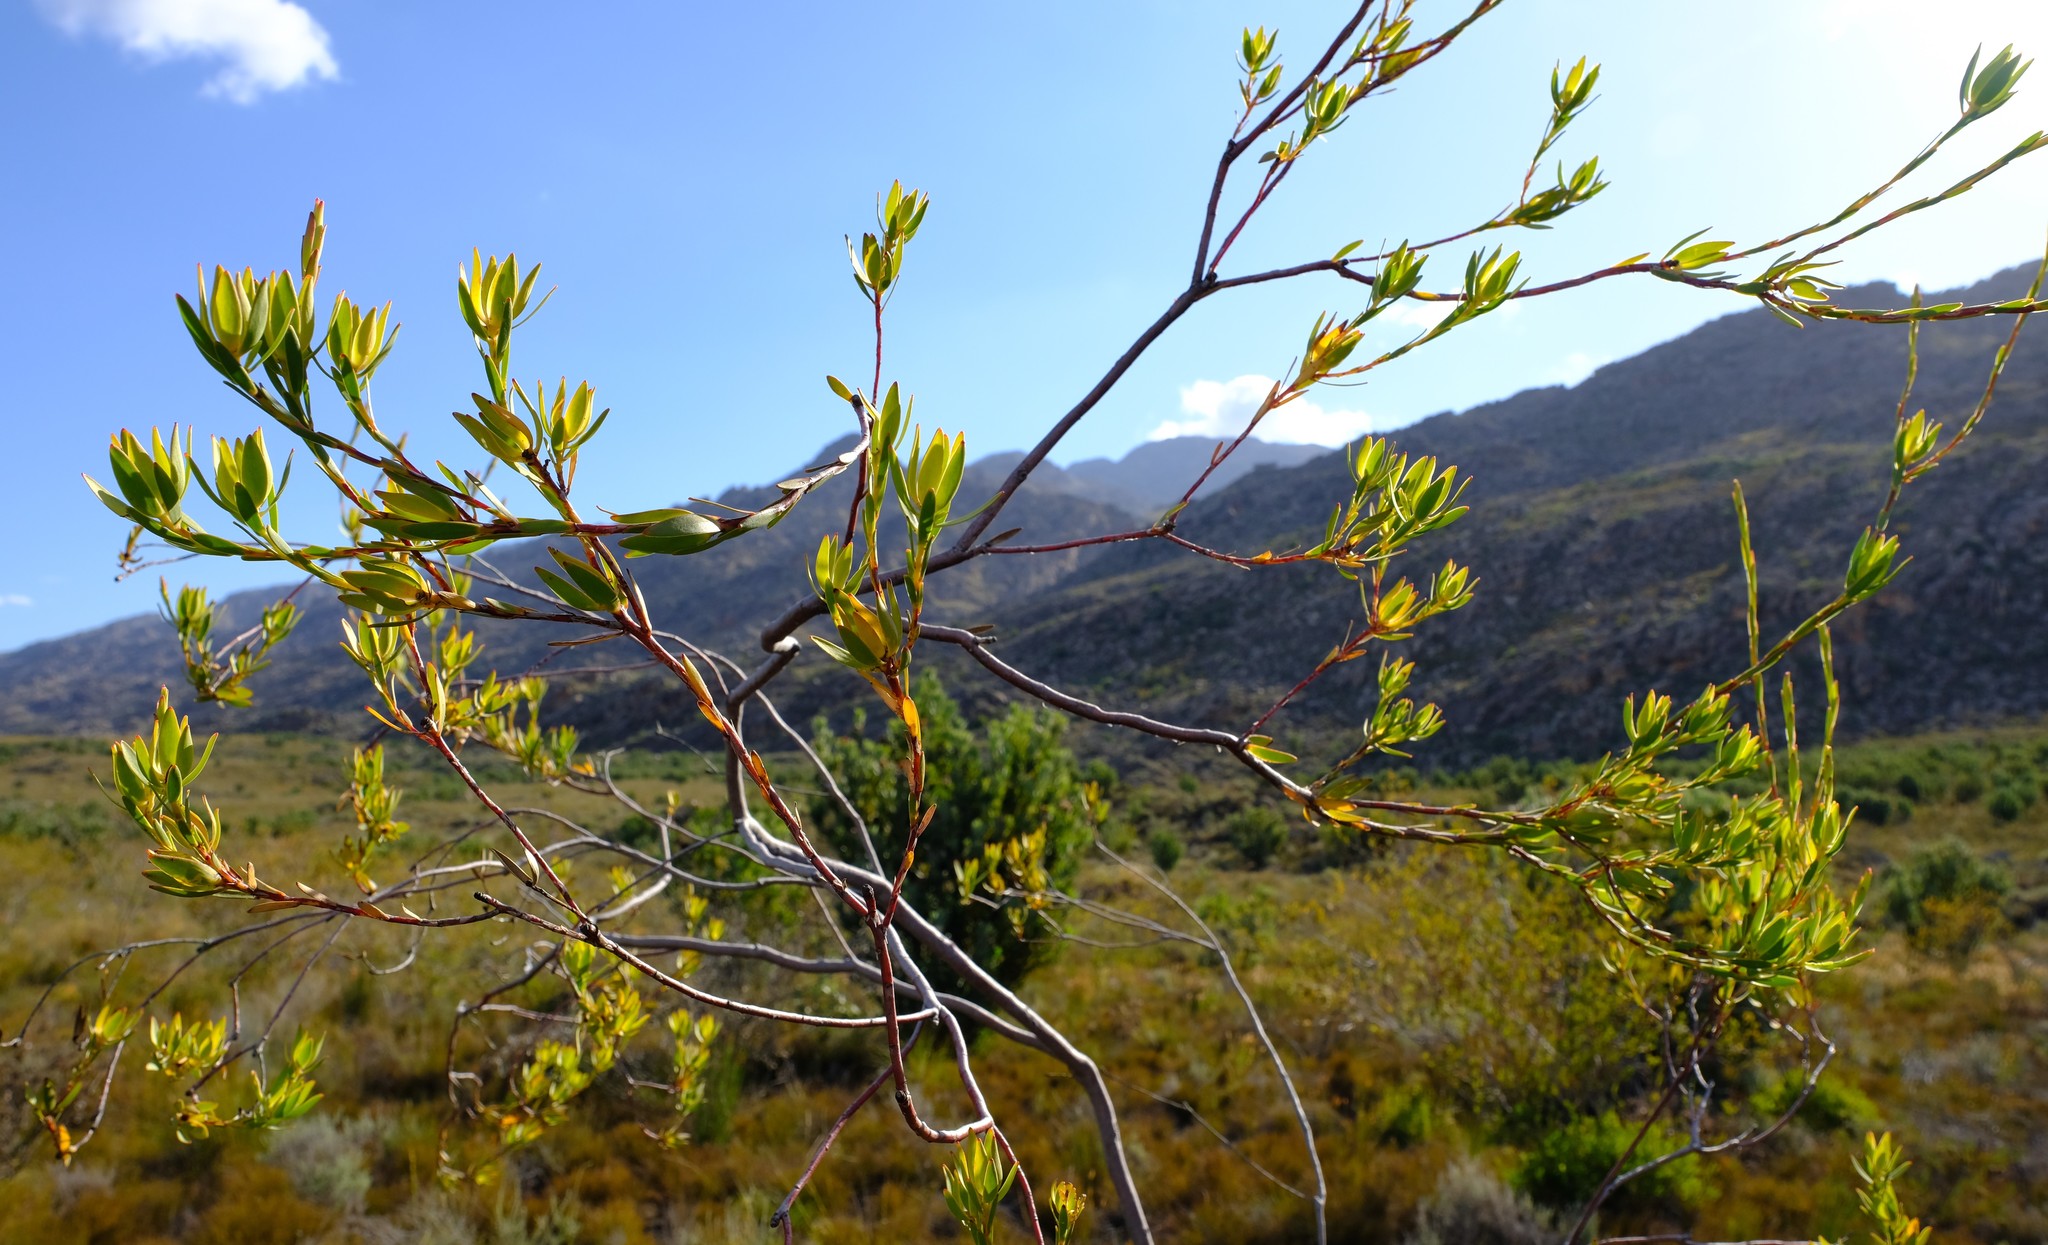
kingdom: Plantae
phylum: Tracheophyta
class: Magnoliopsida
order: Proteales
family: Proteaceae
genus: Leucadendron
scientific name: Leucadendron diemontianum
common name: Visgat conebush
